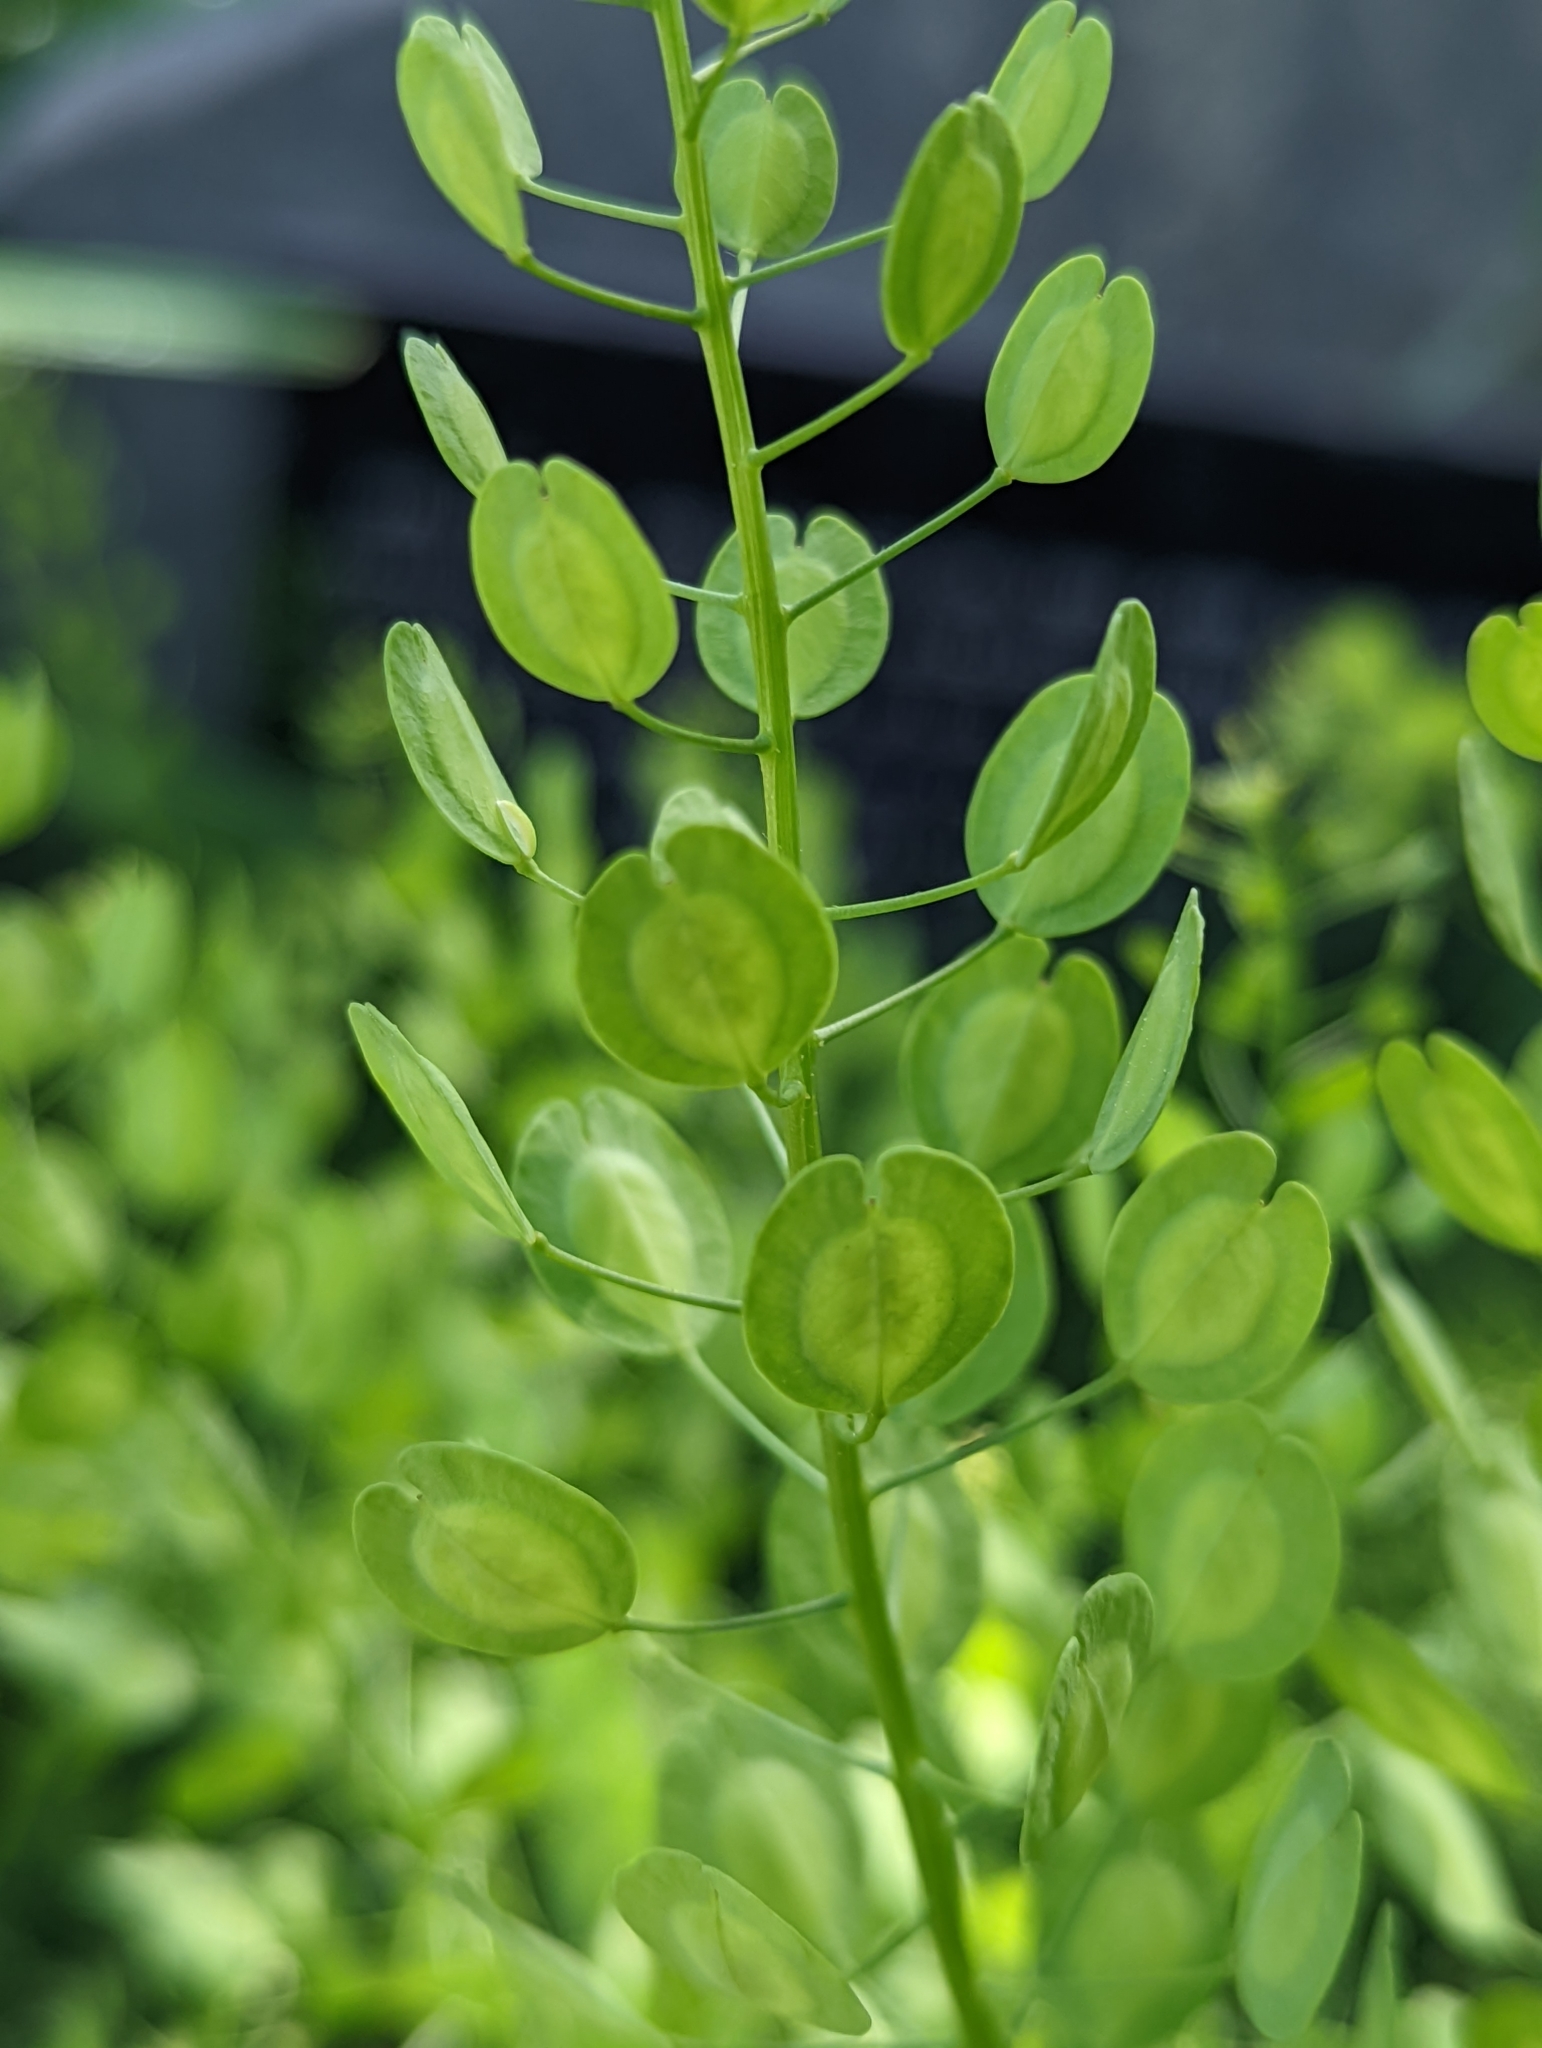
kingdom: Plantae
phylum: Tracheophyta
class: Magnoliopsida
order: Brassicales
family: Brassicaceae
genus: Thlaspi
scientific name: Thlaspi arvense
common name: Field pennycress
